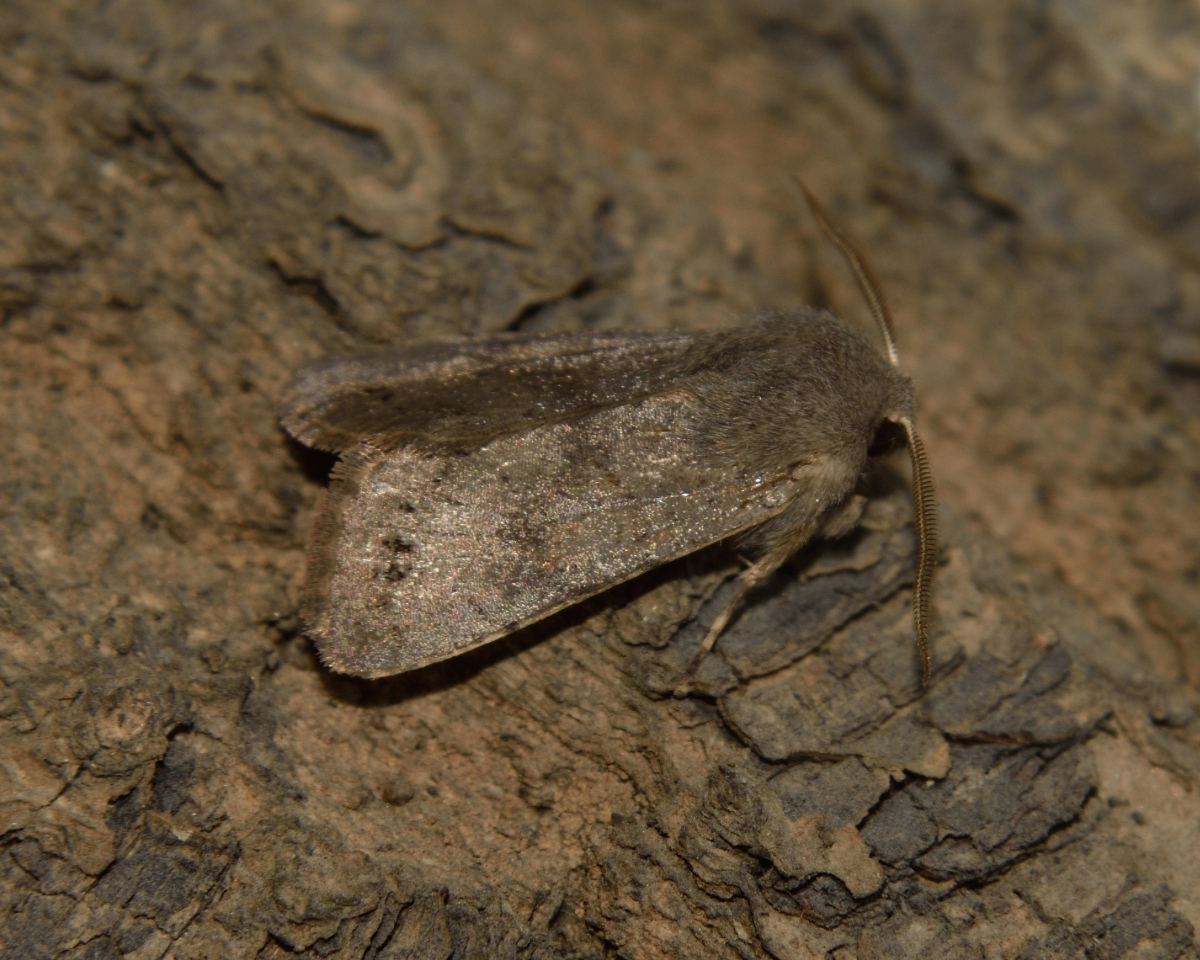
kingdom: Animalia
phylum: Arthropoda
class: Insecta
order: Lepidoptera
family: Noctuidae
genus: Orthosia
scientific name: Orthosia populeti
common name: Lead-coloured drab
